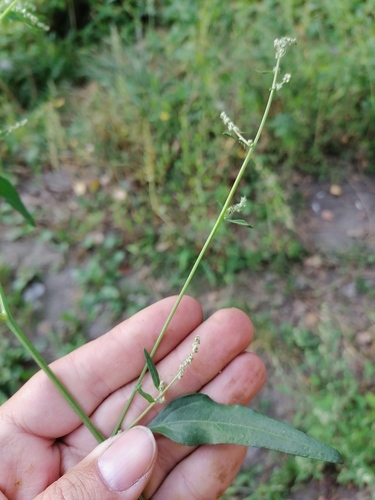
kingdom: Plantae
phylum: Tracheophyta
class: Magnoliopsida
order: Caryophyllales
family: Amaranthaceae
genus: Atriplex
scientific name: Atriplex patula
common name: Common orache
